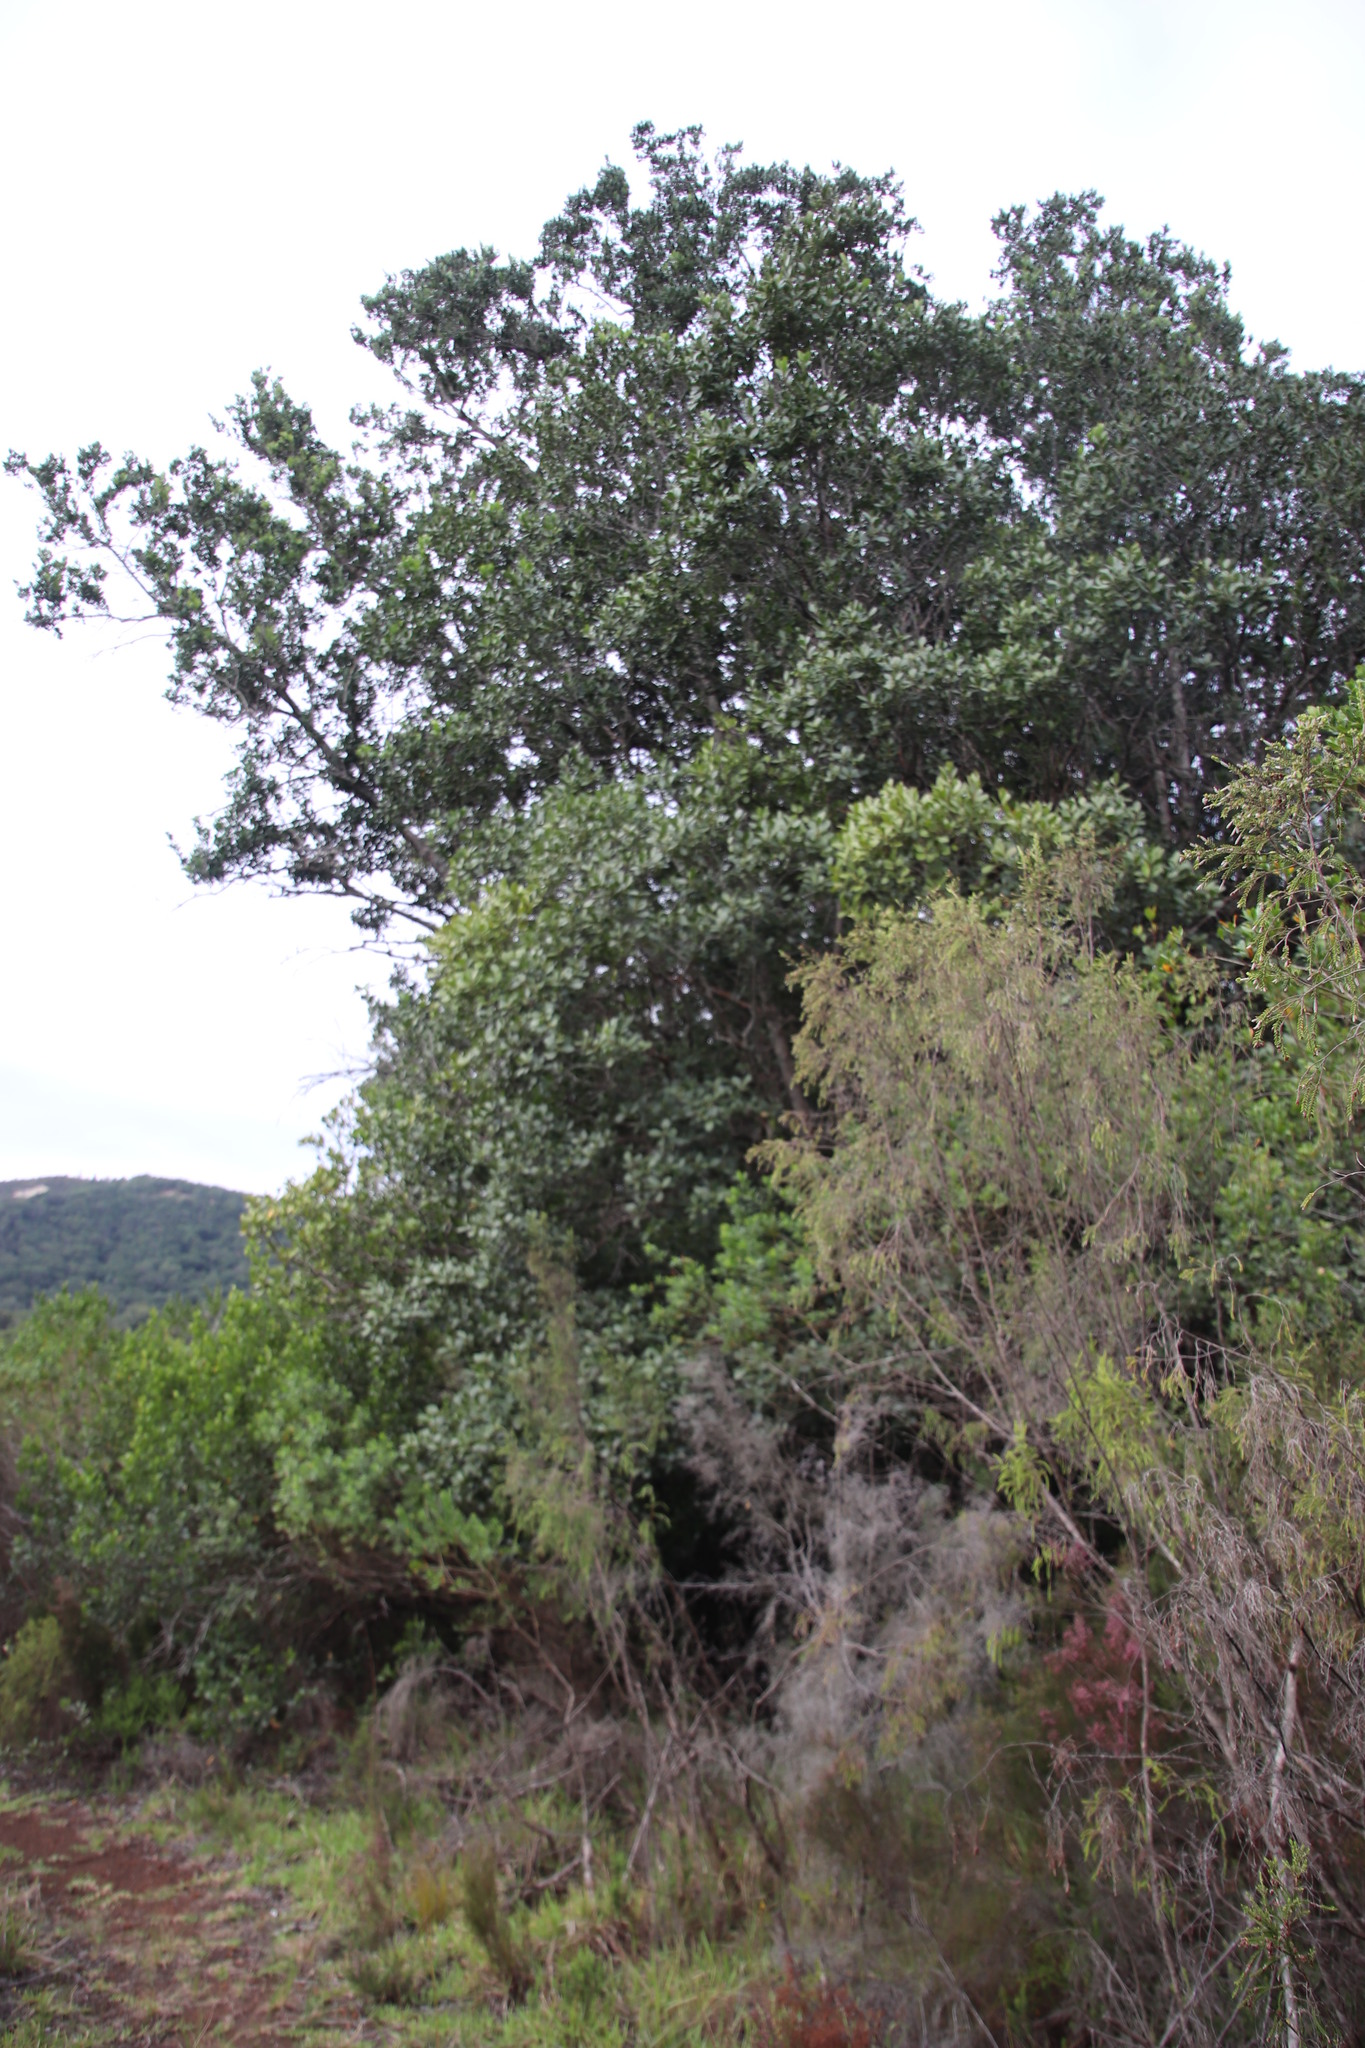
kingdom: Plantae
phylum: Tracheophyta
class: Magnoliopsida
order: Celastrales
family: Celastraceae
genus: Pterocelastrus
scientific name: Pterocelastrus tricuspidatus
